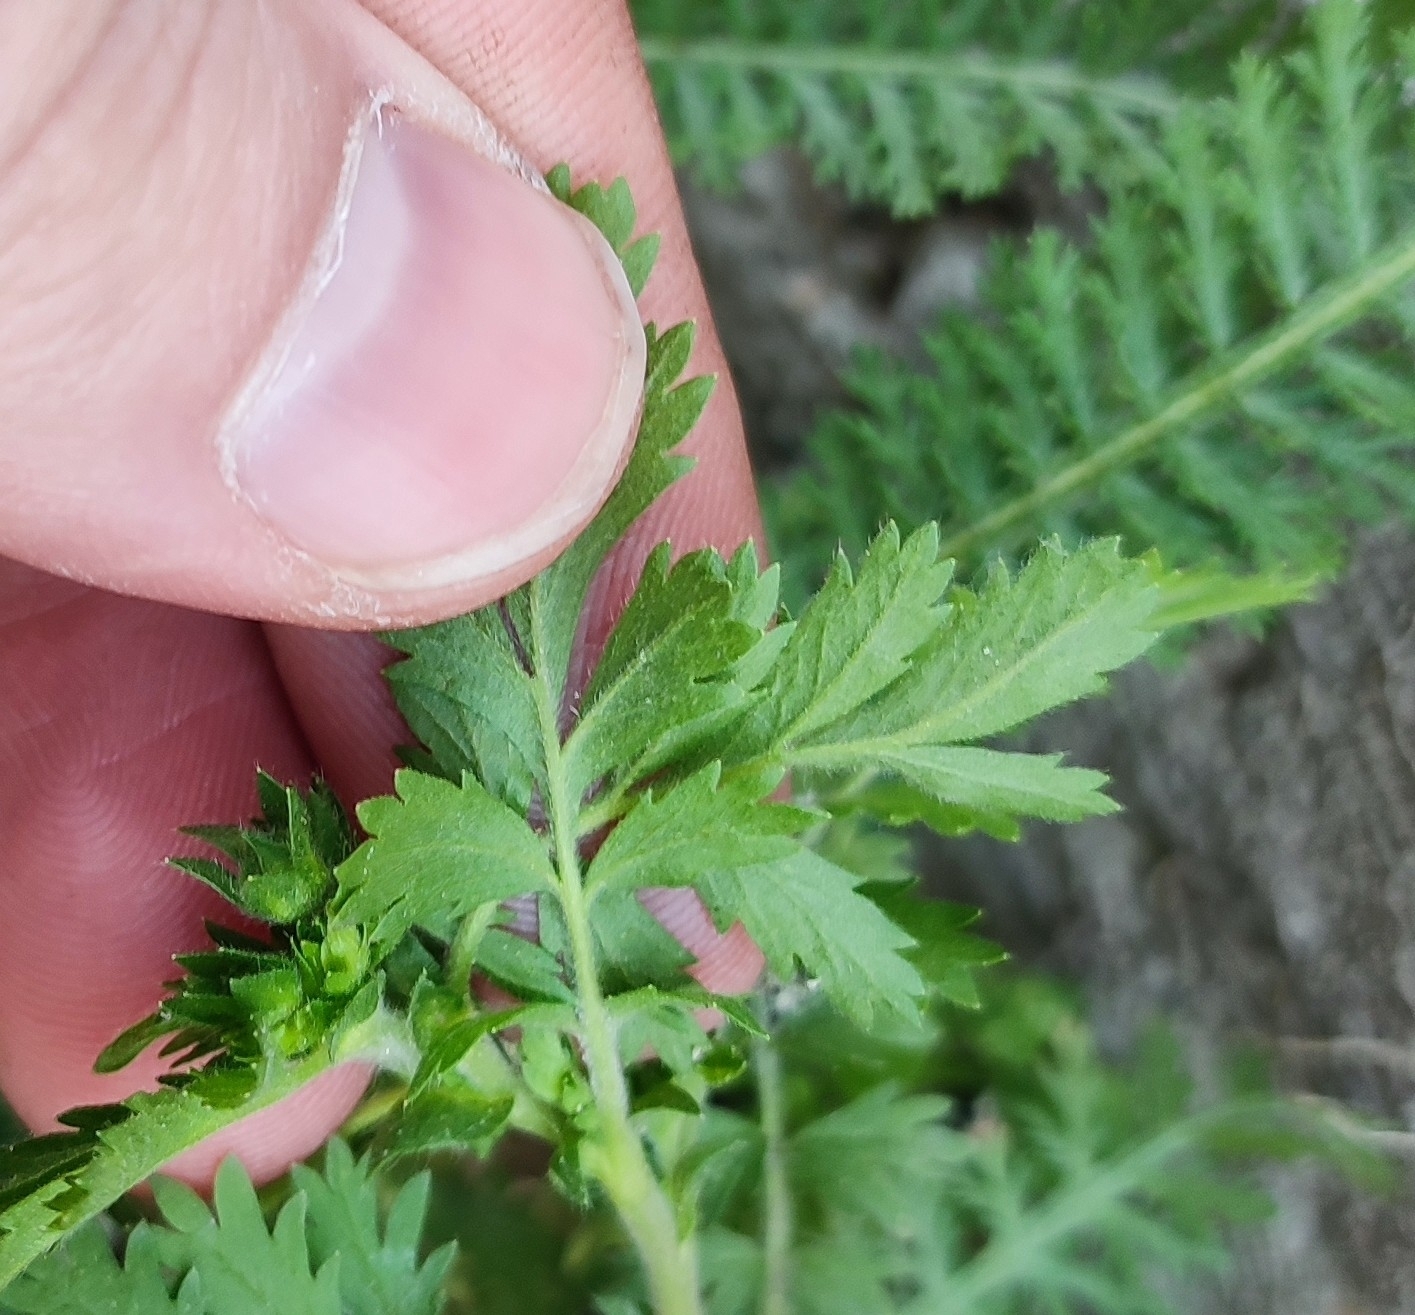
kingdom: Plantae
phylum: Tracheophyta
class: Magnoliopsida
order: Rosales
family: Rosaceae
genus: Potentilla
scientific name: Potentilla supina
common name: Prostrate cinquefoil
